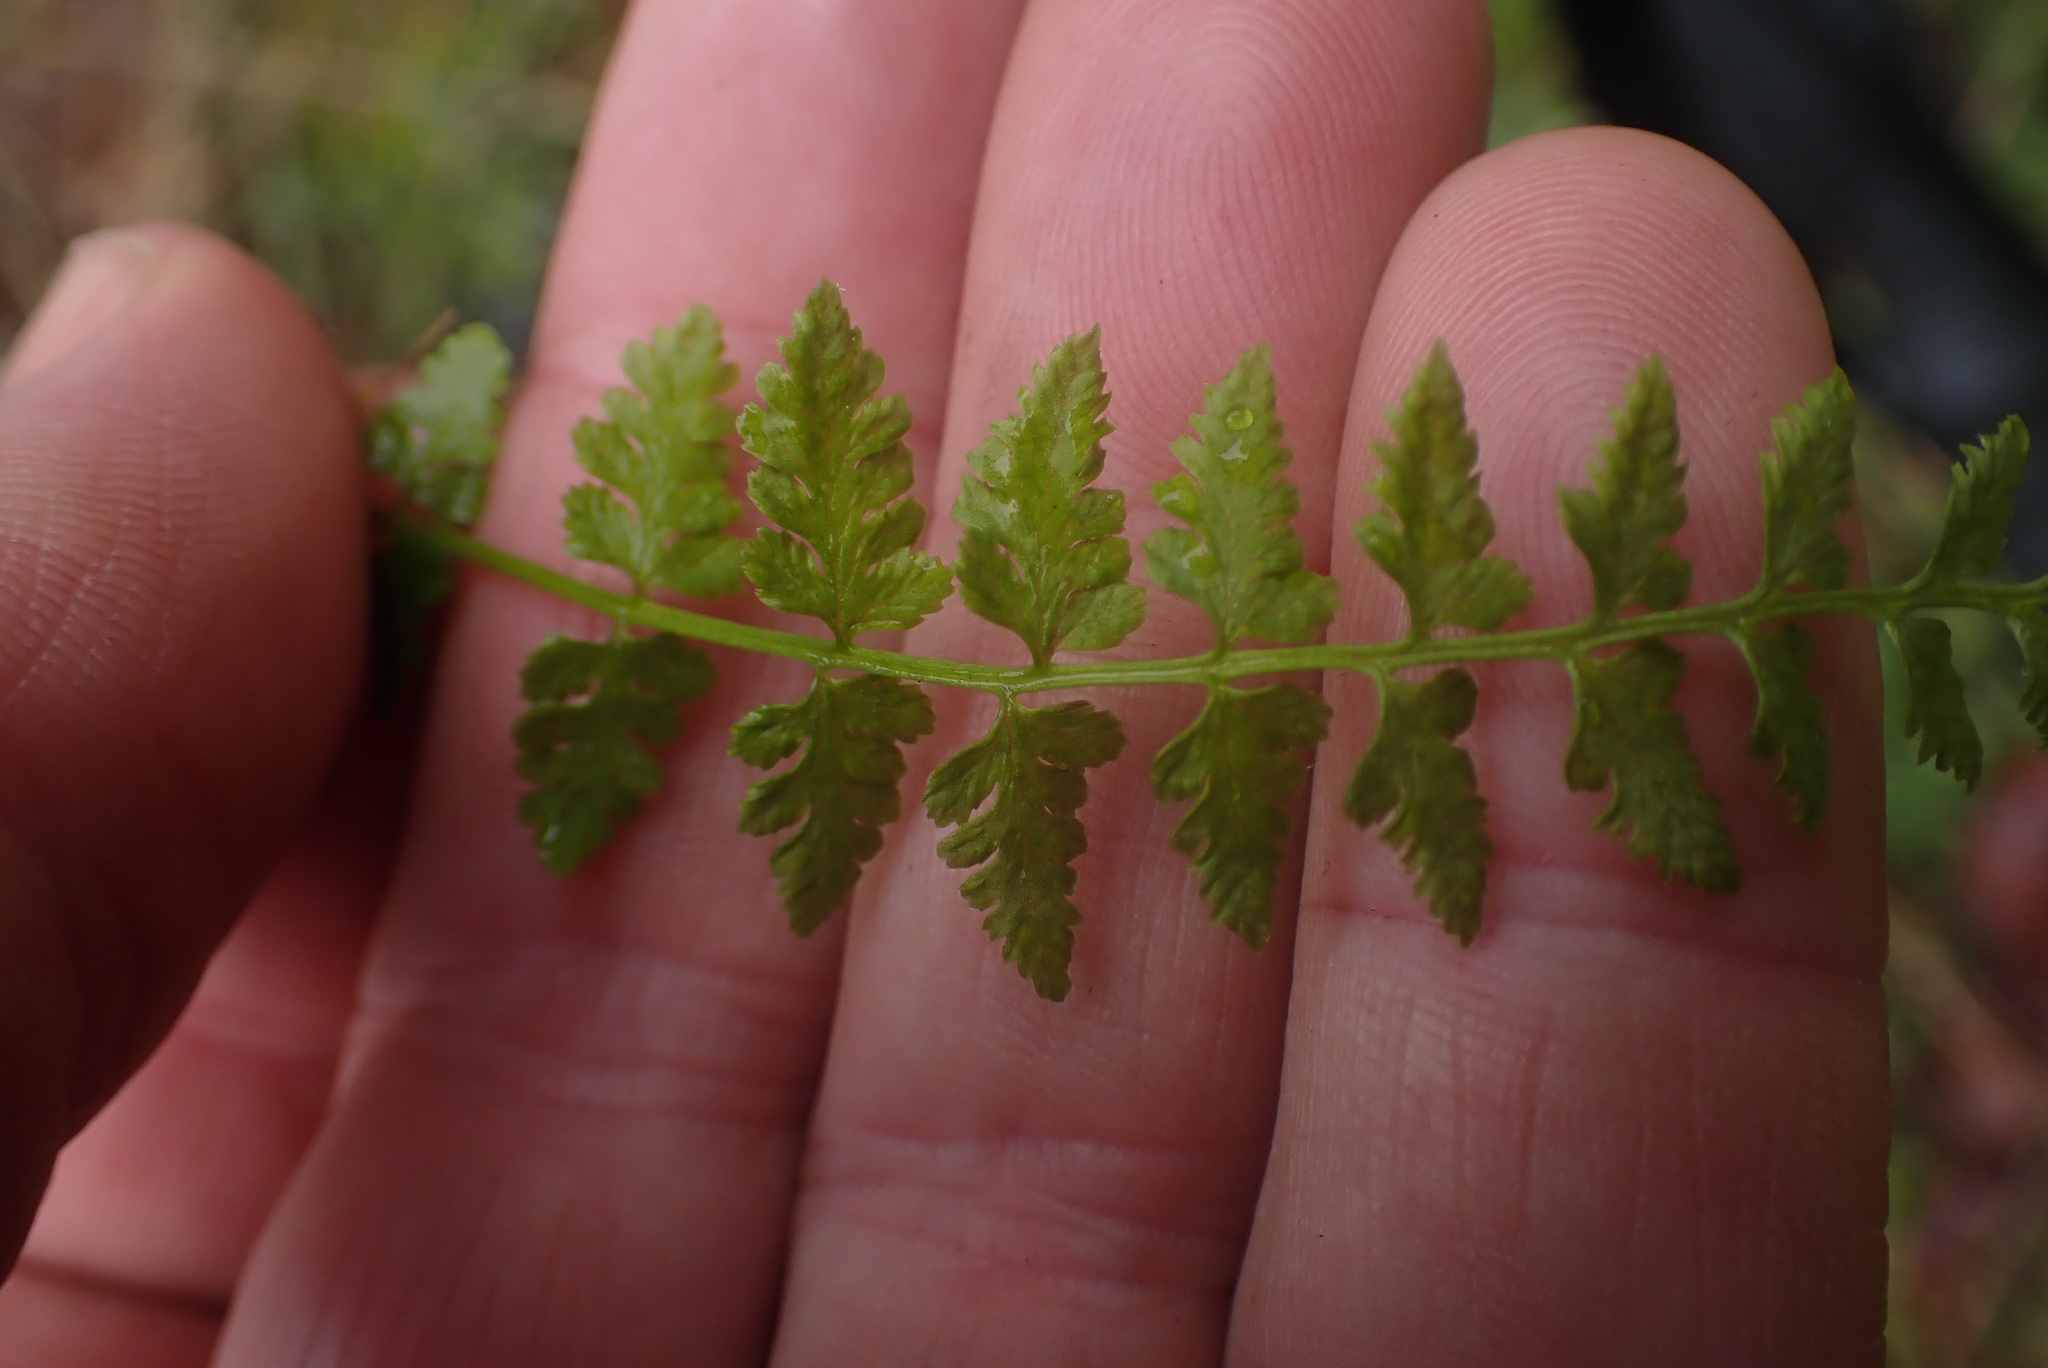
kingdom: Plantae
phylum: Tracheophyta
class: Polypodiopsida
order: Polypodiales
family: Cystopteridaceae
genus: Cystopteris
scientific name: Cystopteris fragilis
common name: Brittle bladder fern
